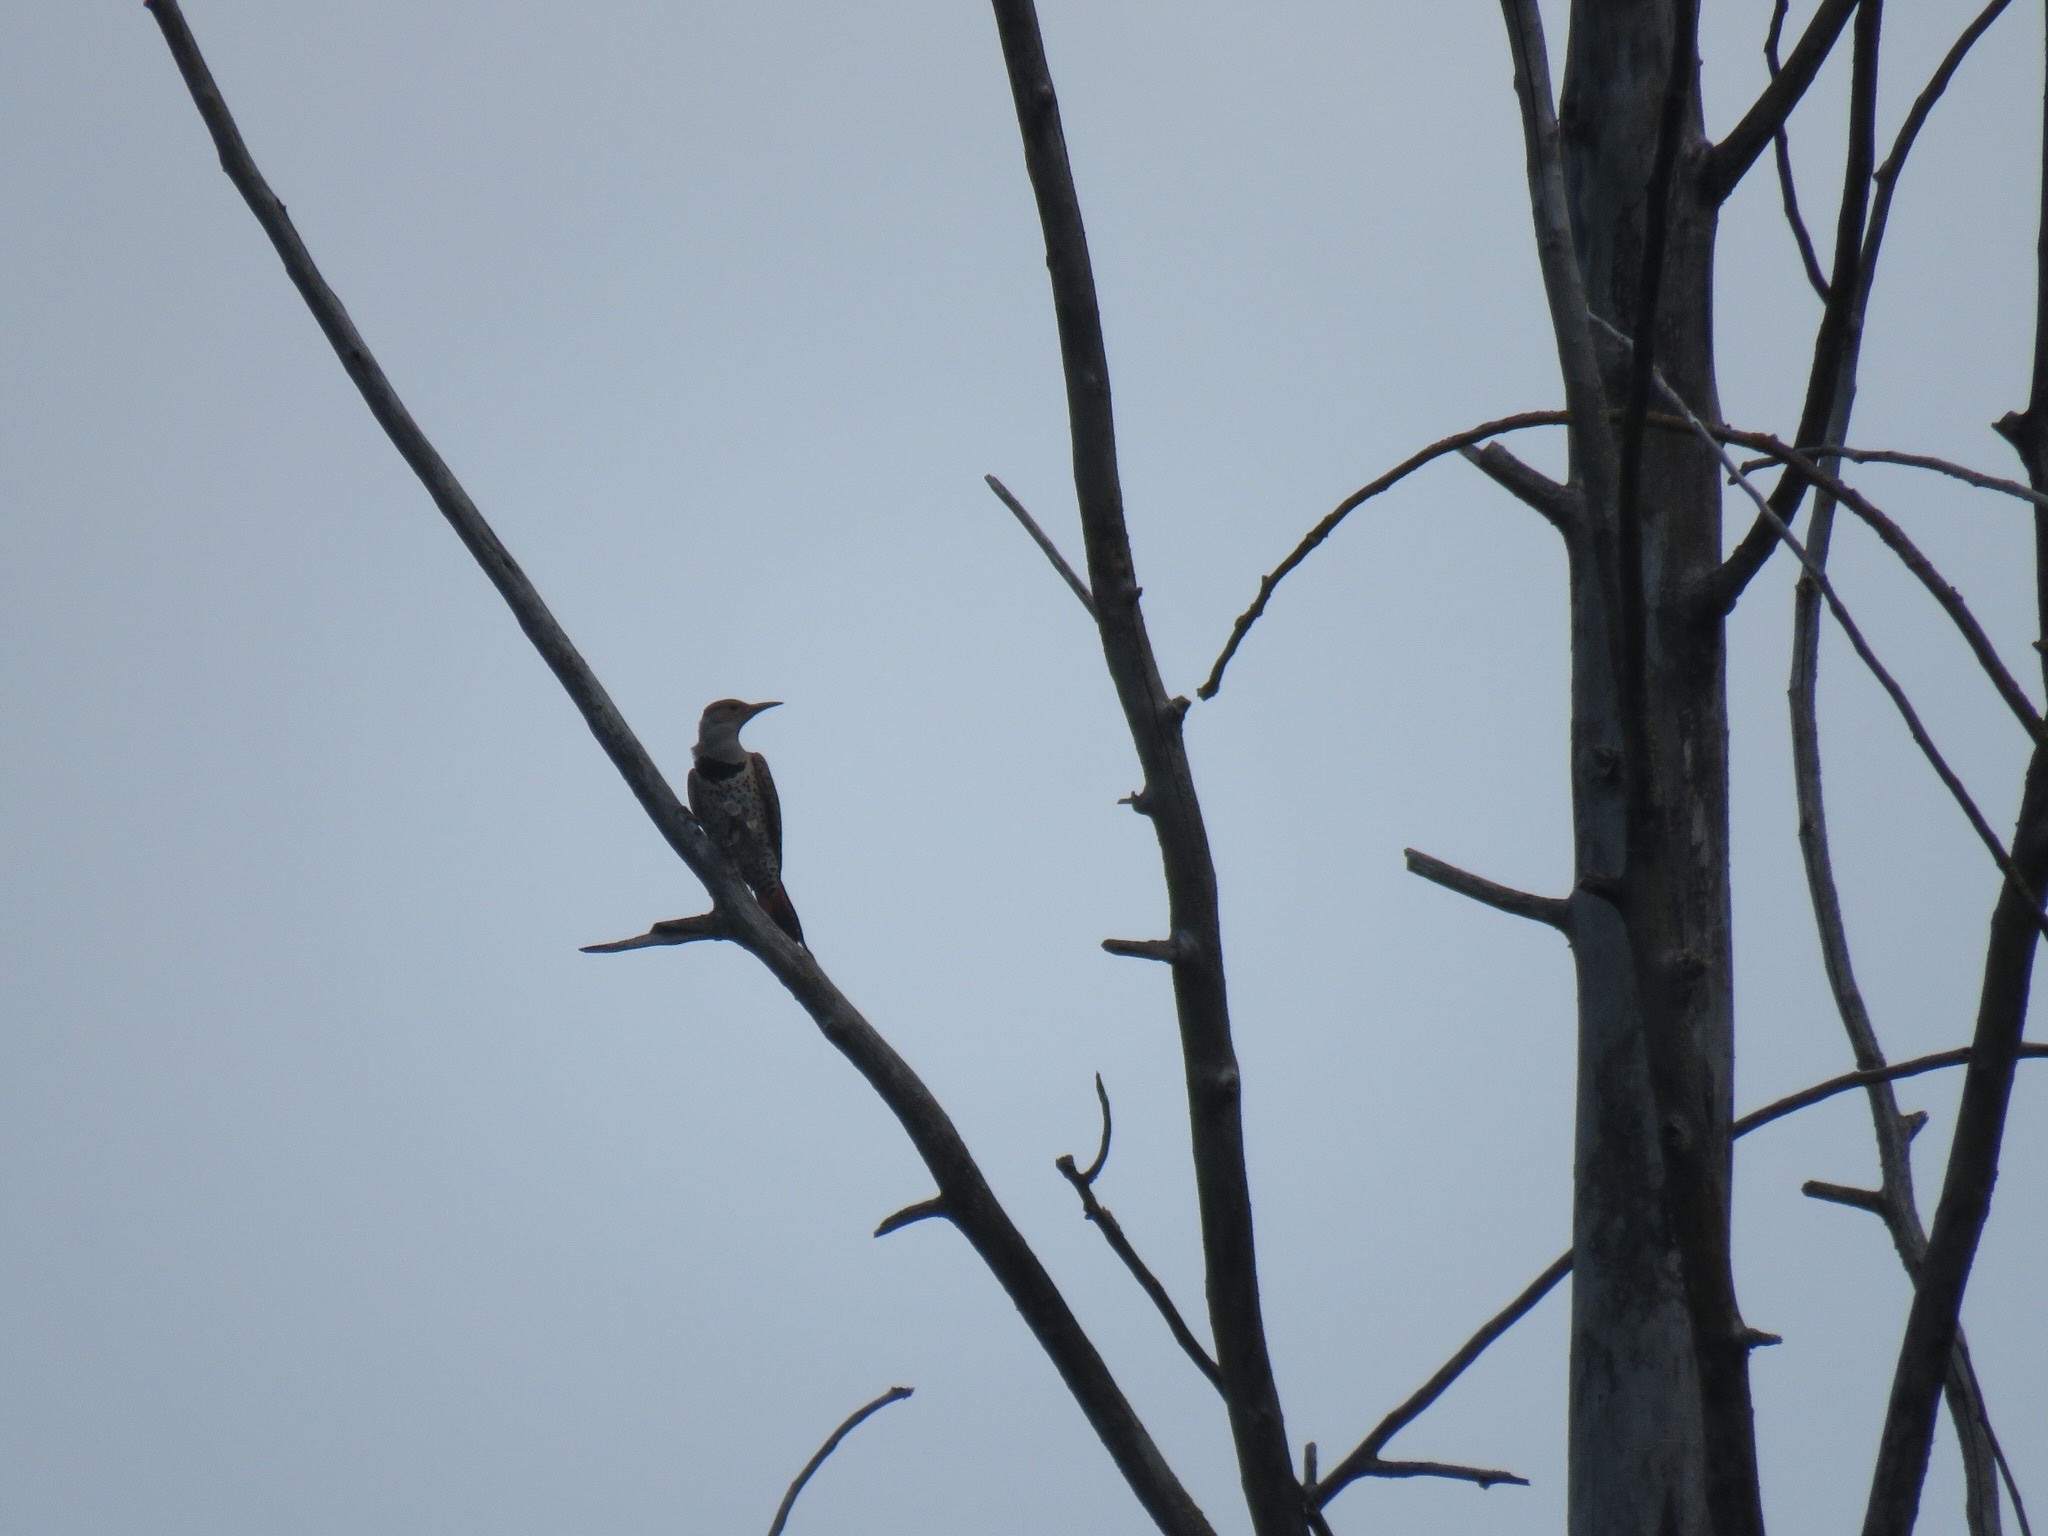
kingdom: Animalia
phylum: Chordata
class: Aves
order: Piciformes
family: Picidae
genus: Colaptes
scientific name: Colaptes auratus
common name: Northern flicker
